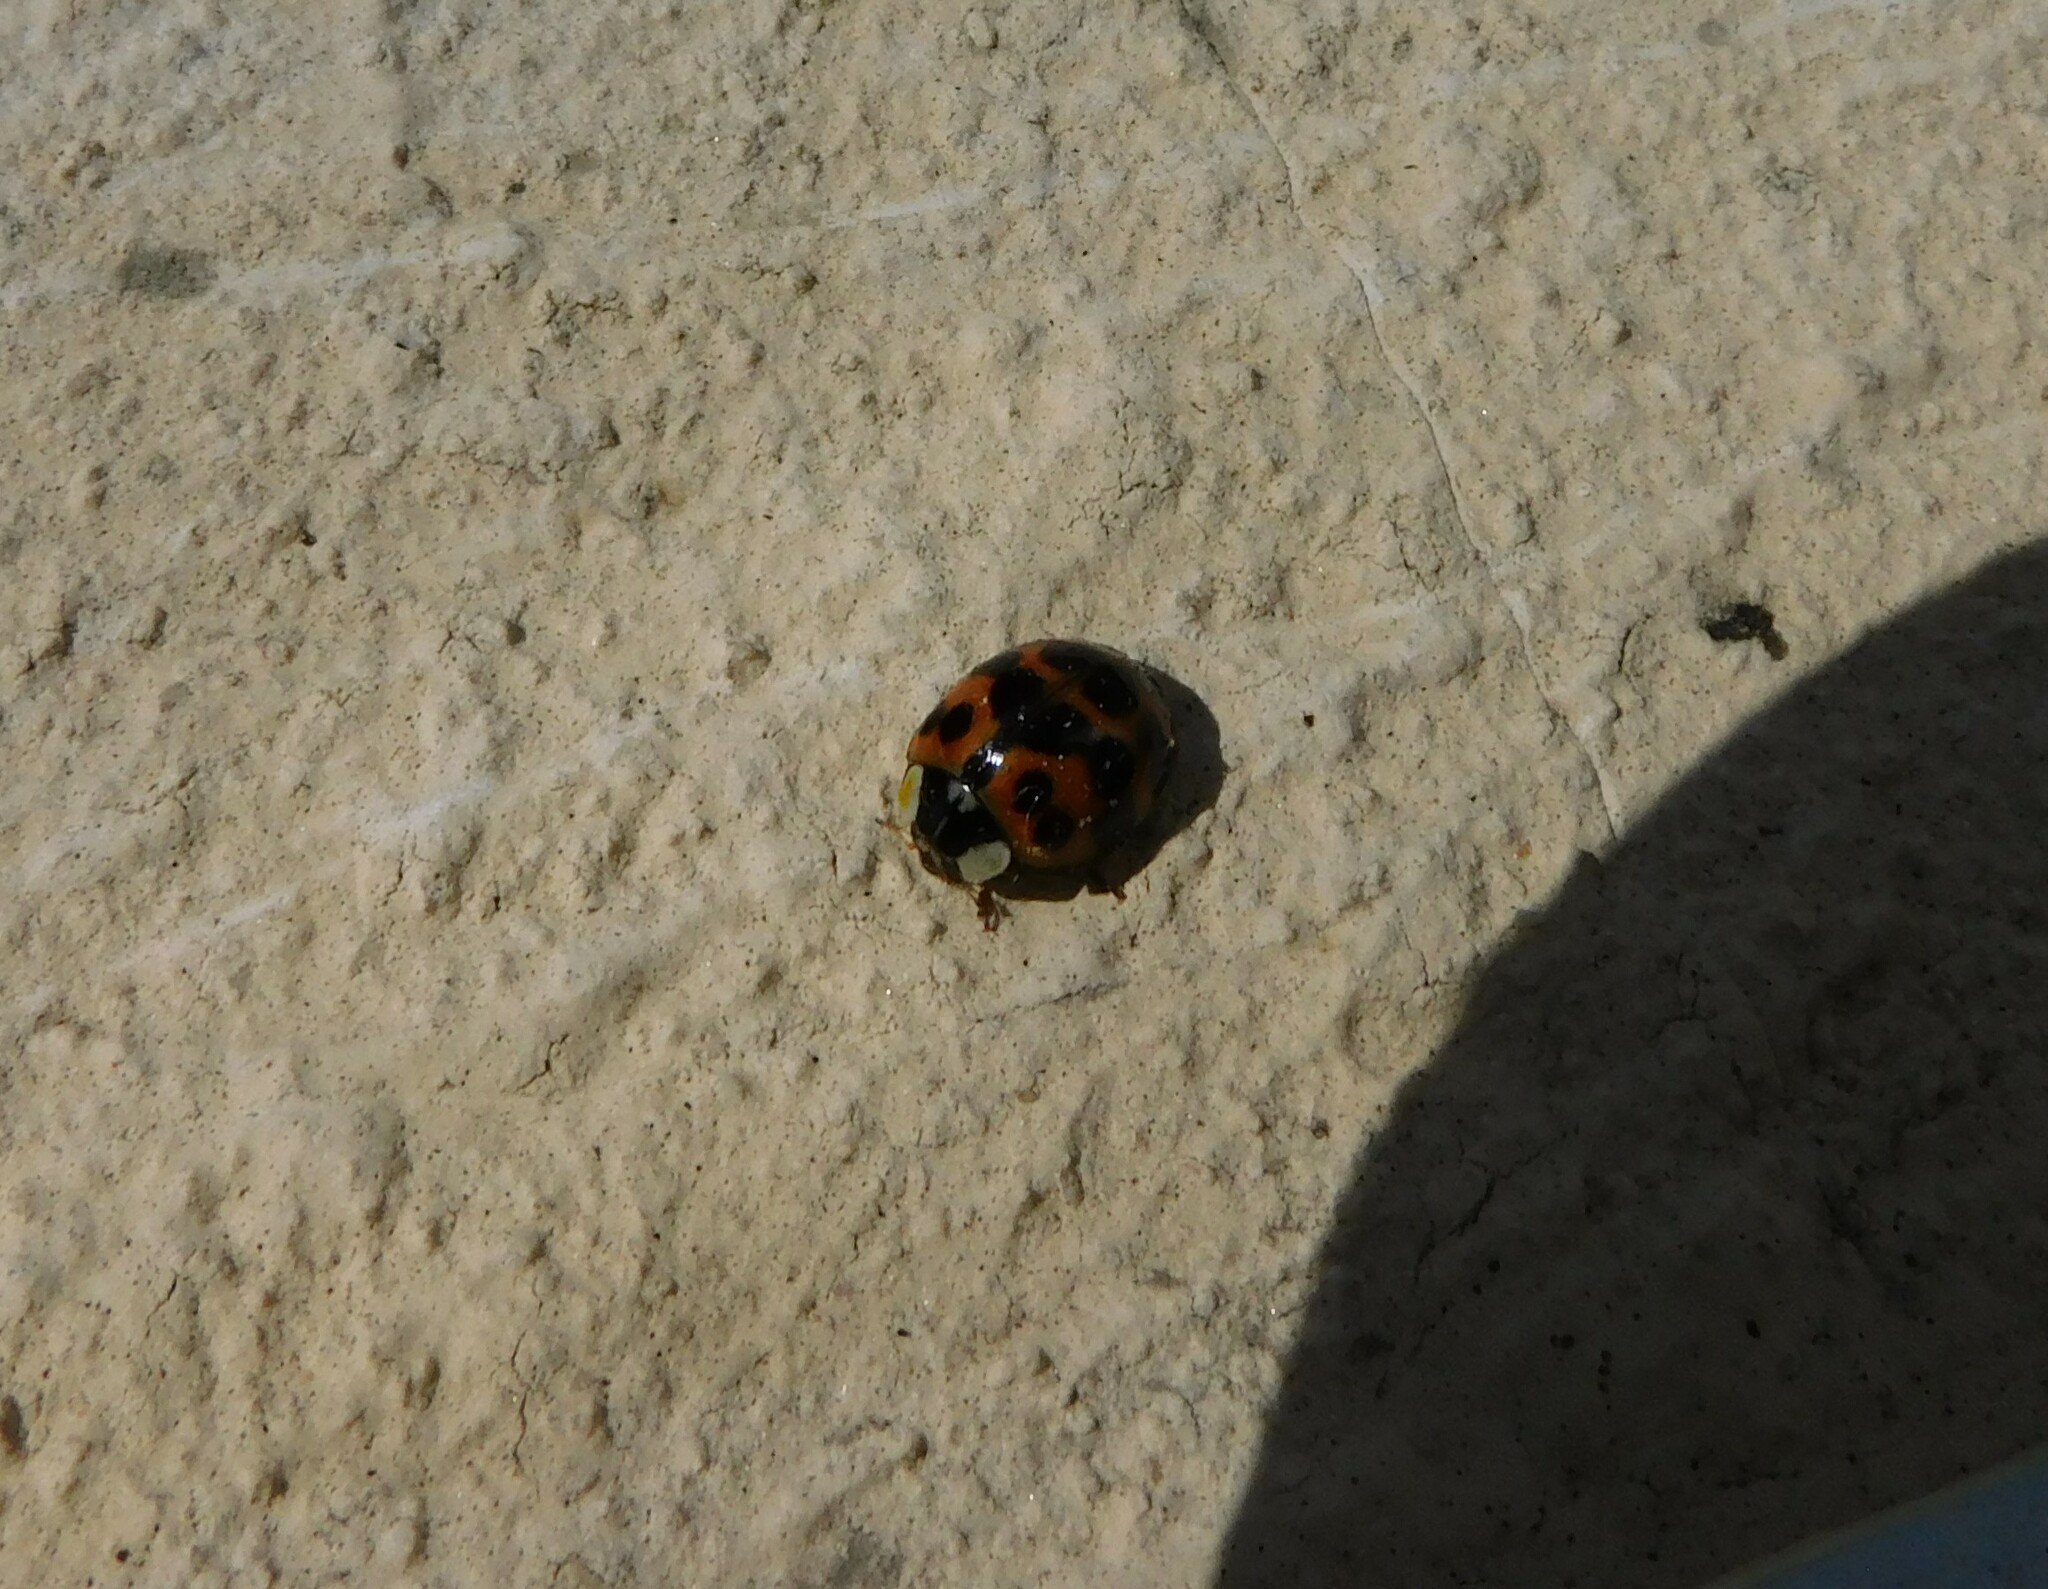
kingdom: Animalia
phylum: Arthropoda
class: Insecta
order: Coleoptera
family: Coccinellidae
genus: Harmonia
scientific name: Harmonia axyridis
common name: Harlequin ladybird
